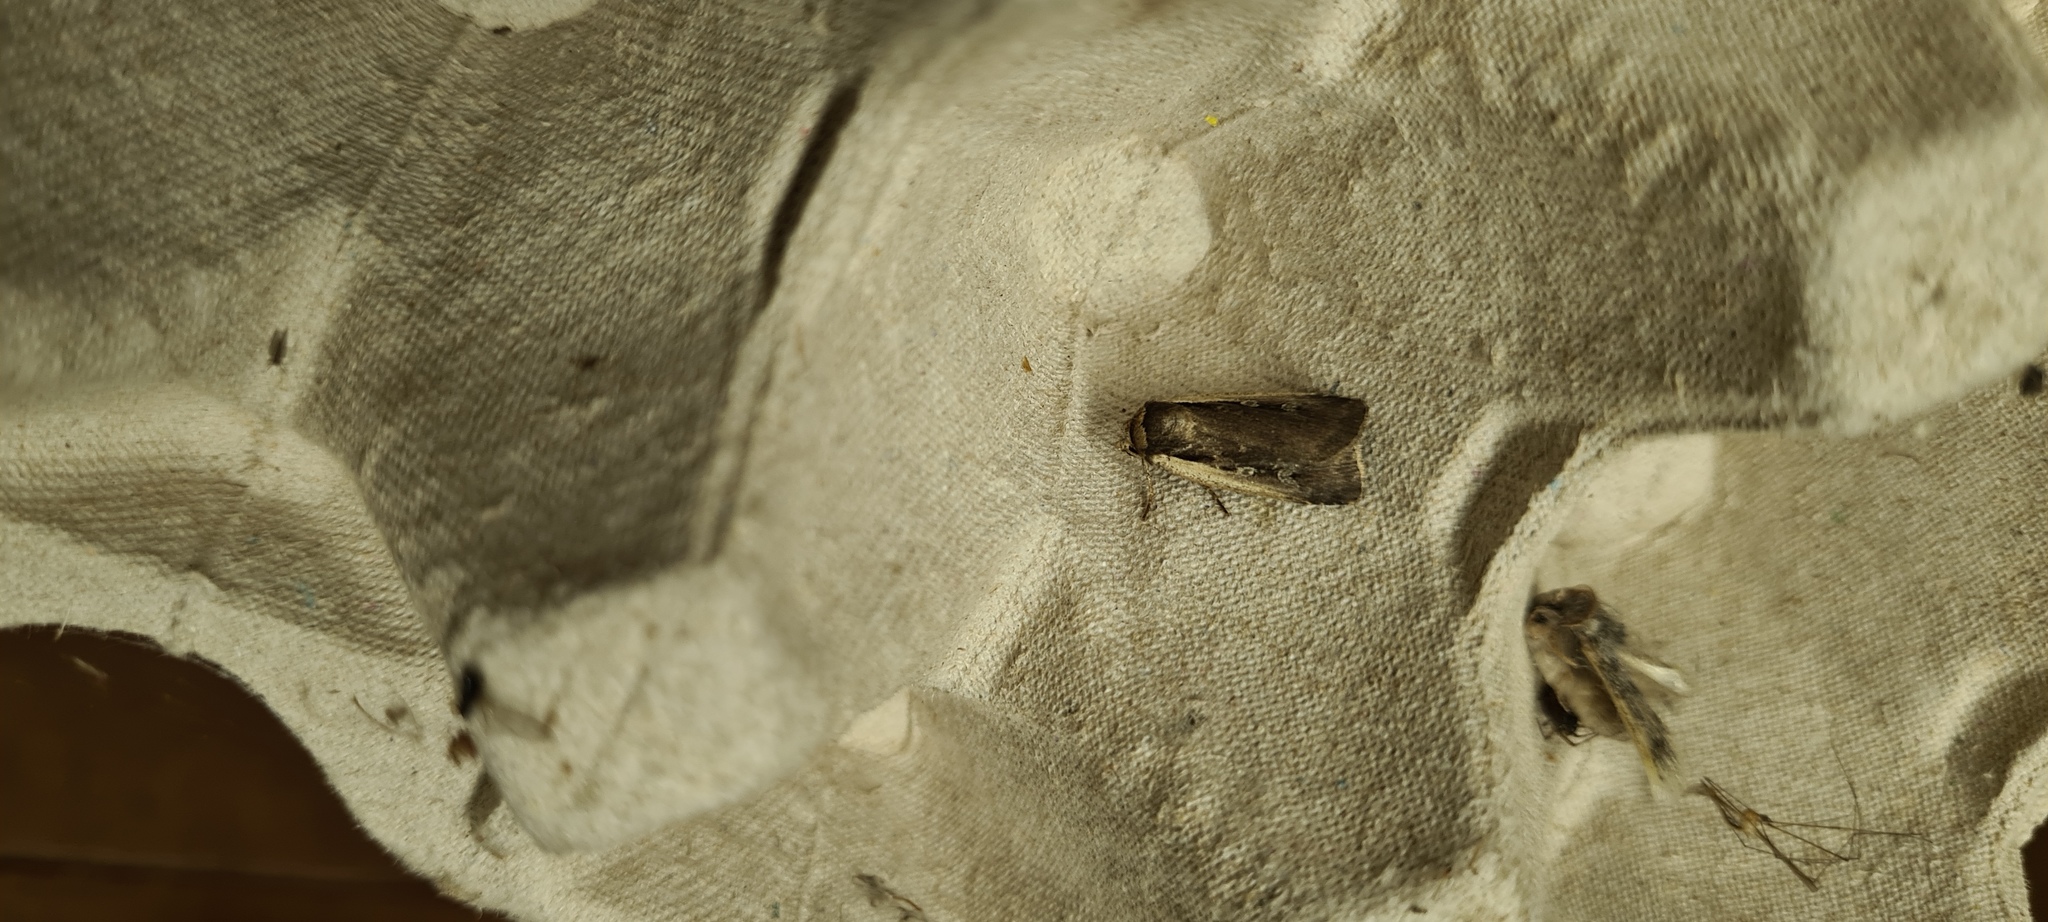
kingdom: Animalia
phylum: Arthropoda
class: Insecta
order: Lepidoptera
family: Noctuidae
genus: Ochropleura
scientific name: Ochropleura plecta
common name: Flame shoulder
